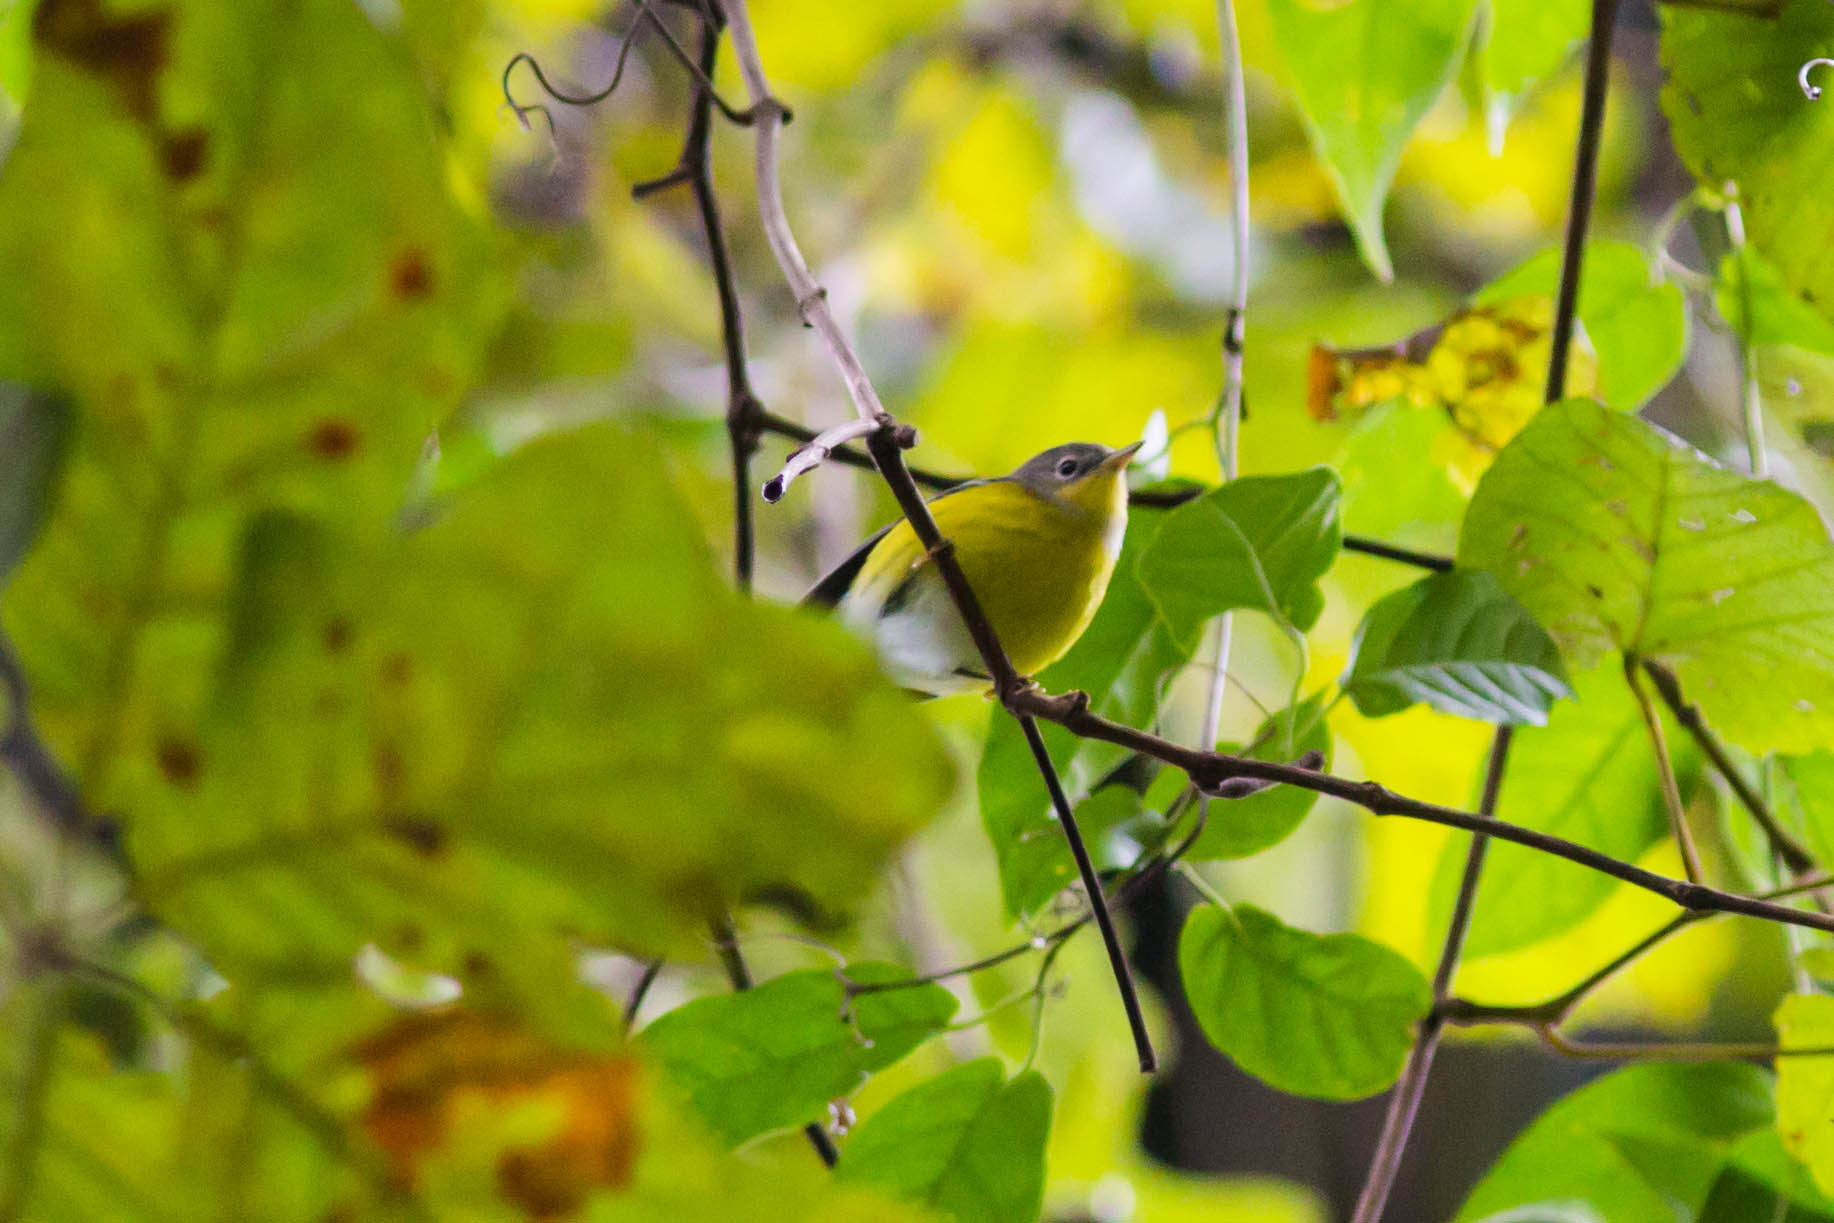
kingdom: Animalia
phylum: Chordata
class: Aves
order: Passeriformes
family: Parulidae
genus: Leiothlypis
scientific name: Leiothlypis ruficapilla
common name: Nashville warbler
